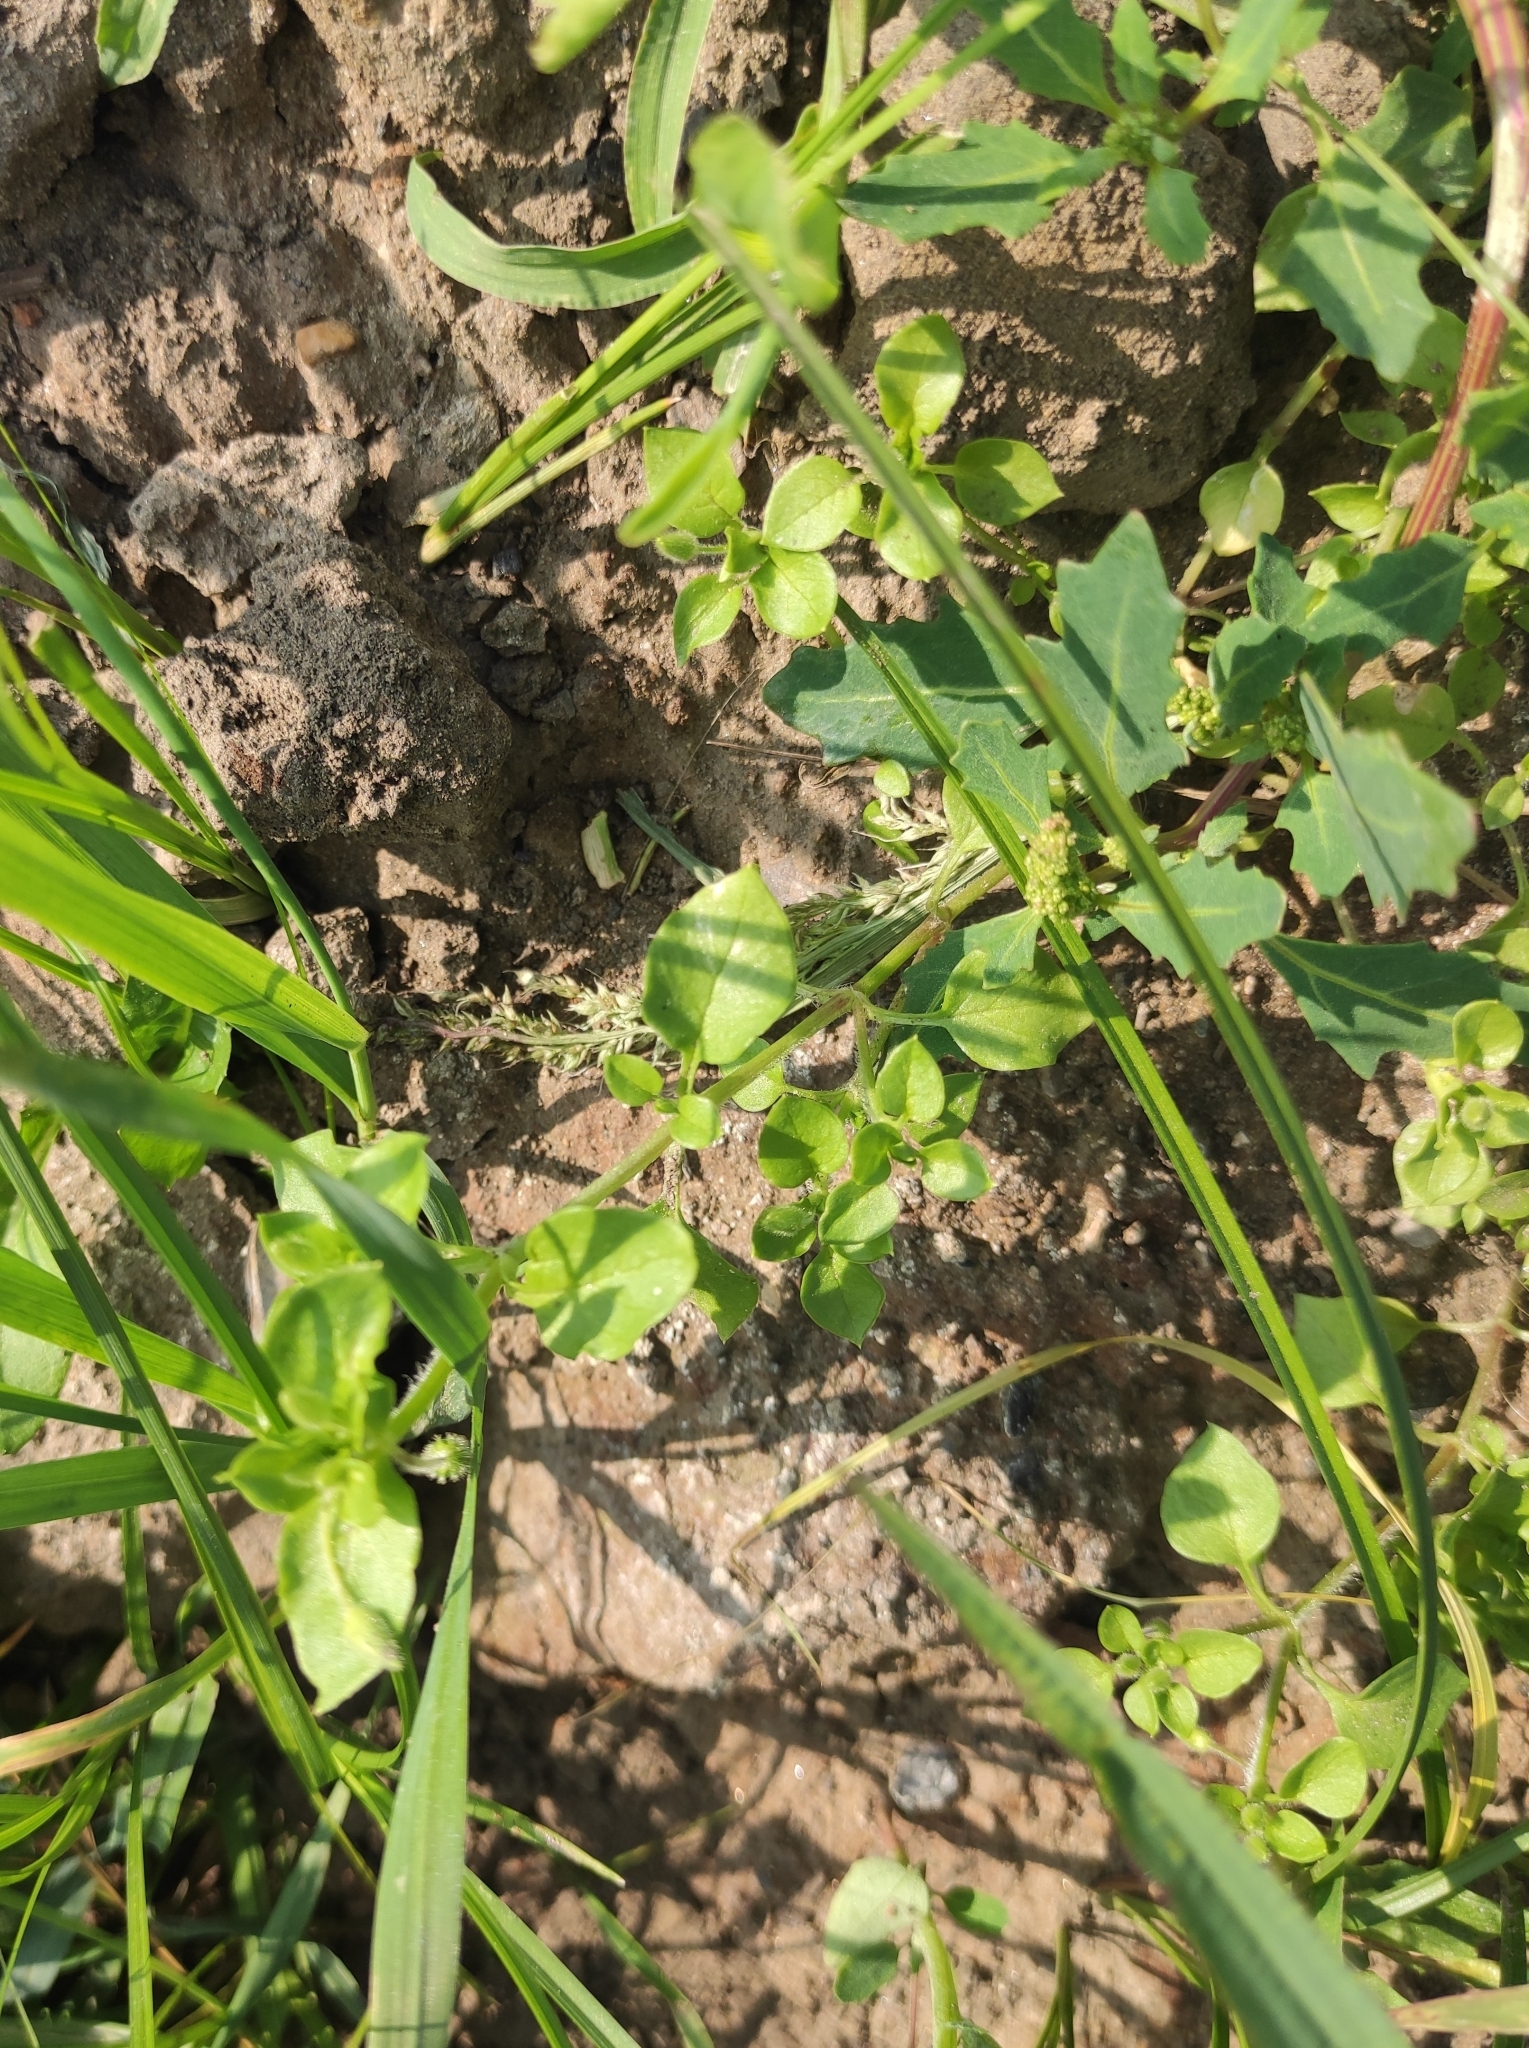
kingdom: Plantae
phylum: Tracheophyta
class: Magnoliopsida
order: Caryophyllales
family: Caryophyllaceae
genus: Stellaria
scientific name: Stellaria media
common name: Common chickweed
